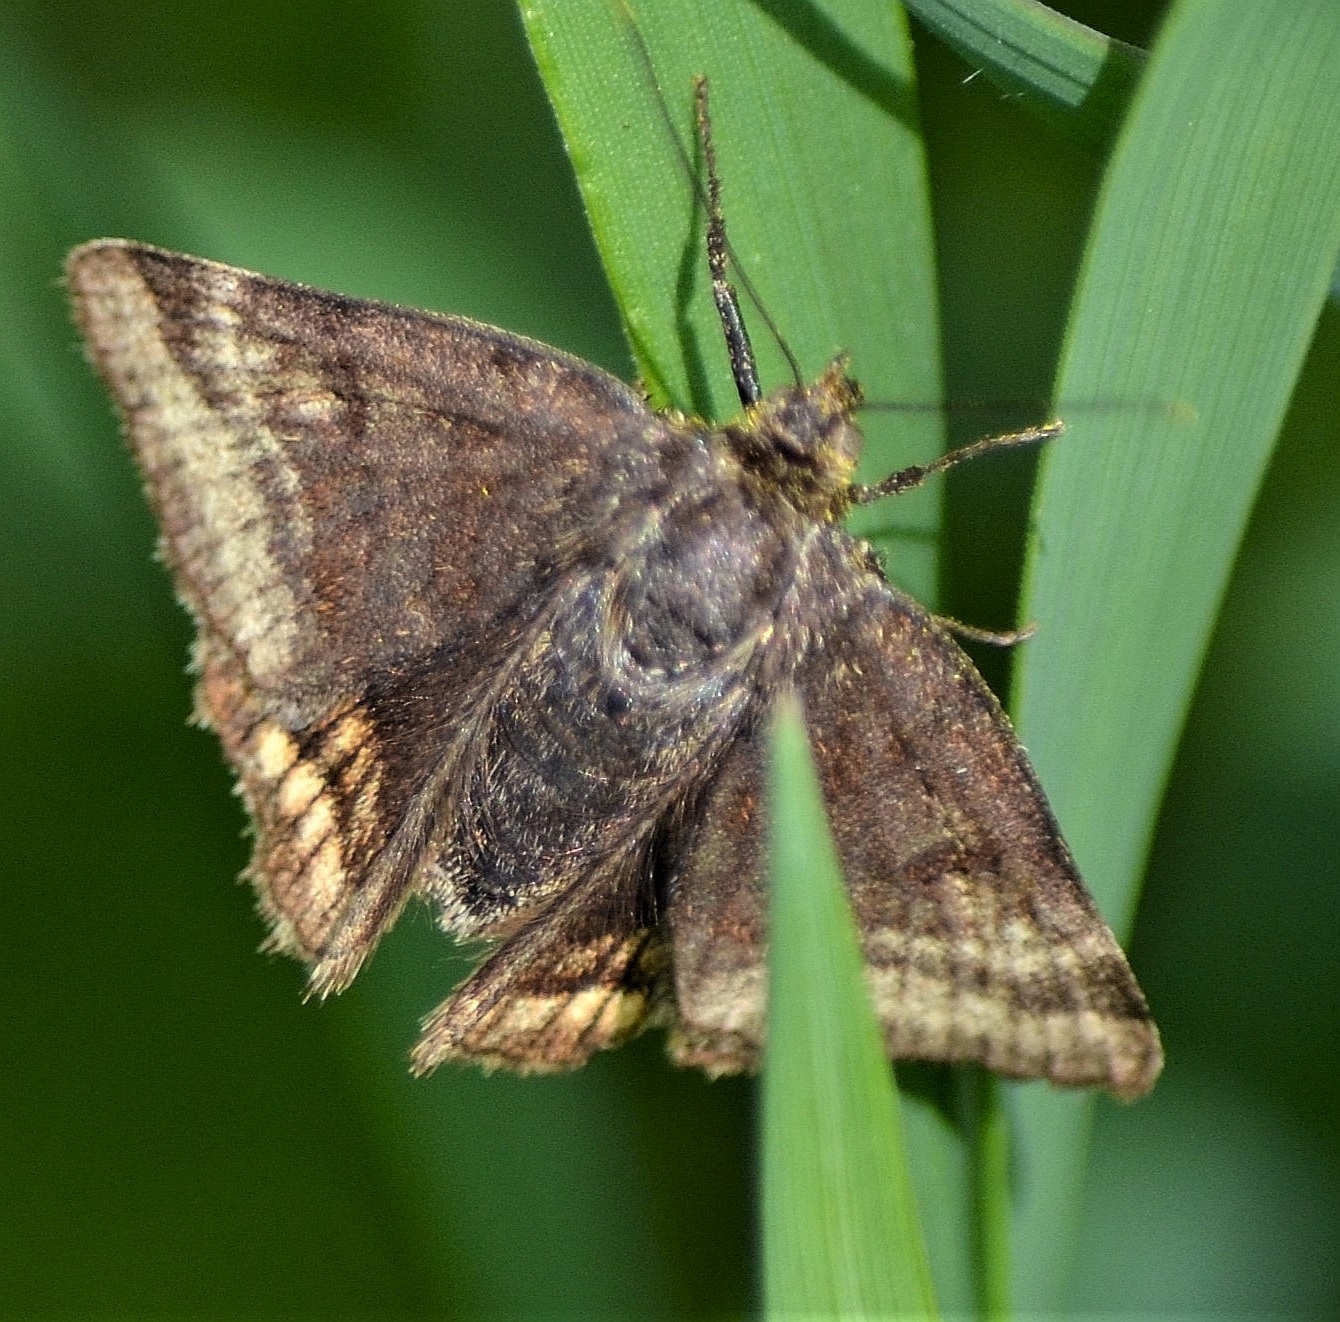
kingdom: Animalia
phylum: Arthropoda
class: Insecta
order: Lepidoptera
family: Erebidae
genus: Euclidia
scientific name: Euclidia glyphica
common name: Burnet companion
